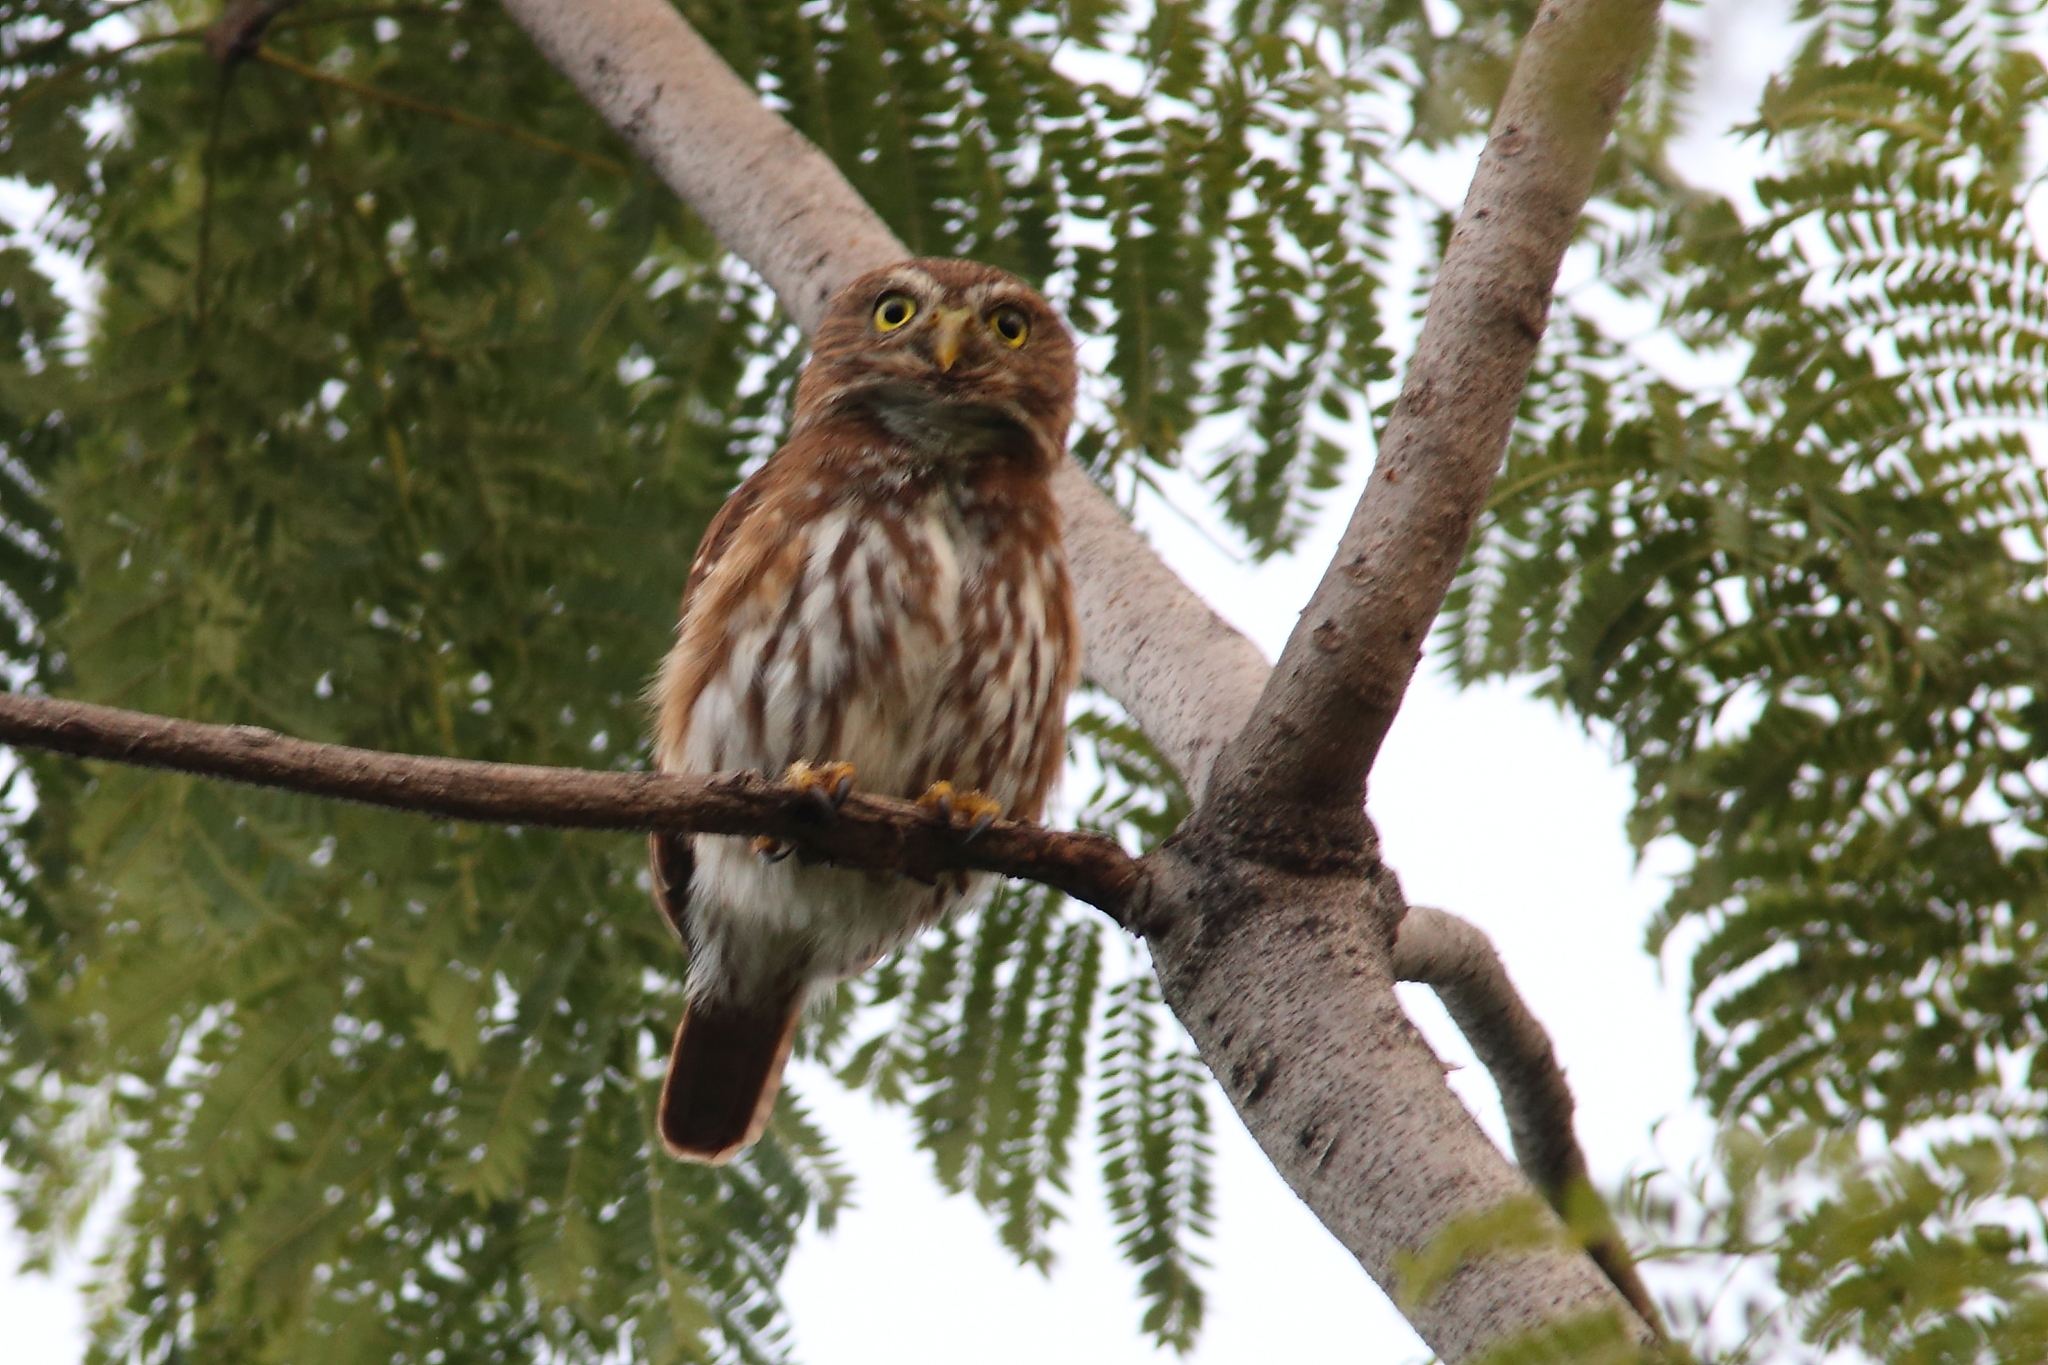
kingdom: Animalia
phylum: Chordata
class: Aves
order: Strigiformes
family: Strigidae
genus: Glaucidium
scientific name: Glaucidium brasilianum
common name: Ferruginous pygmy-owl
